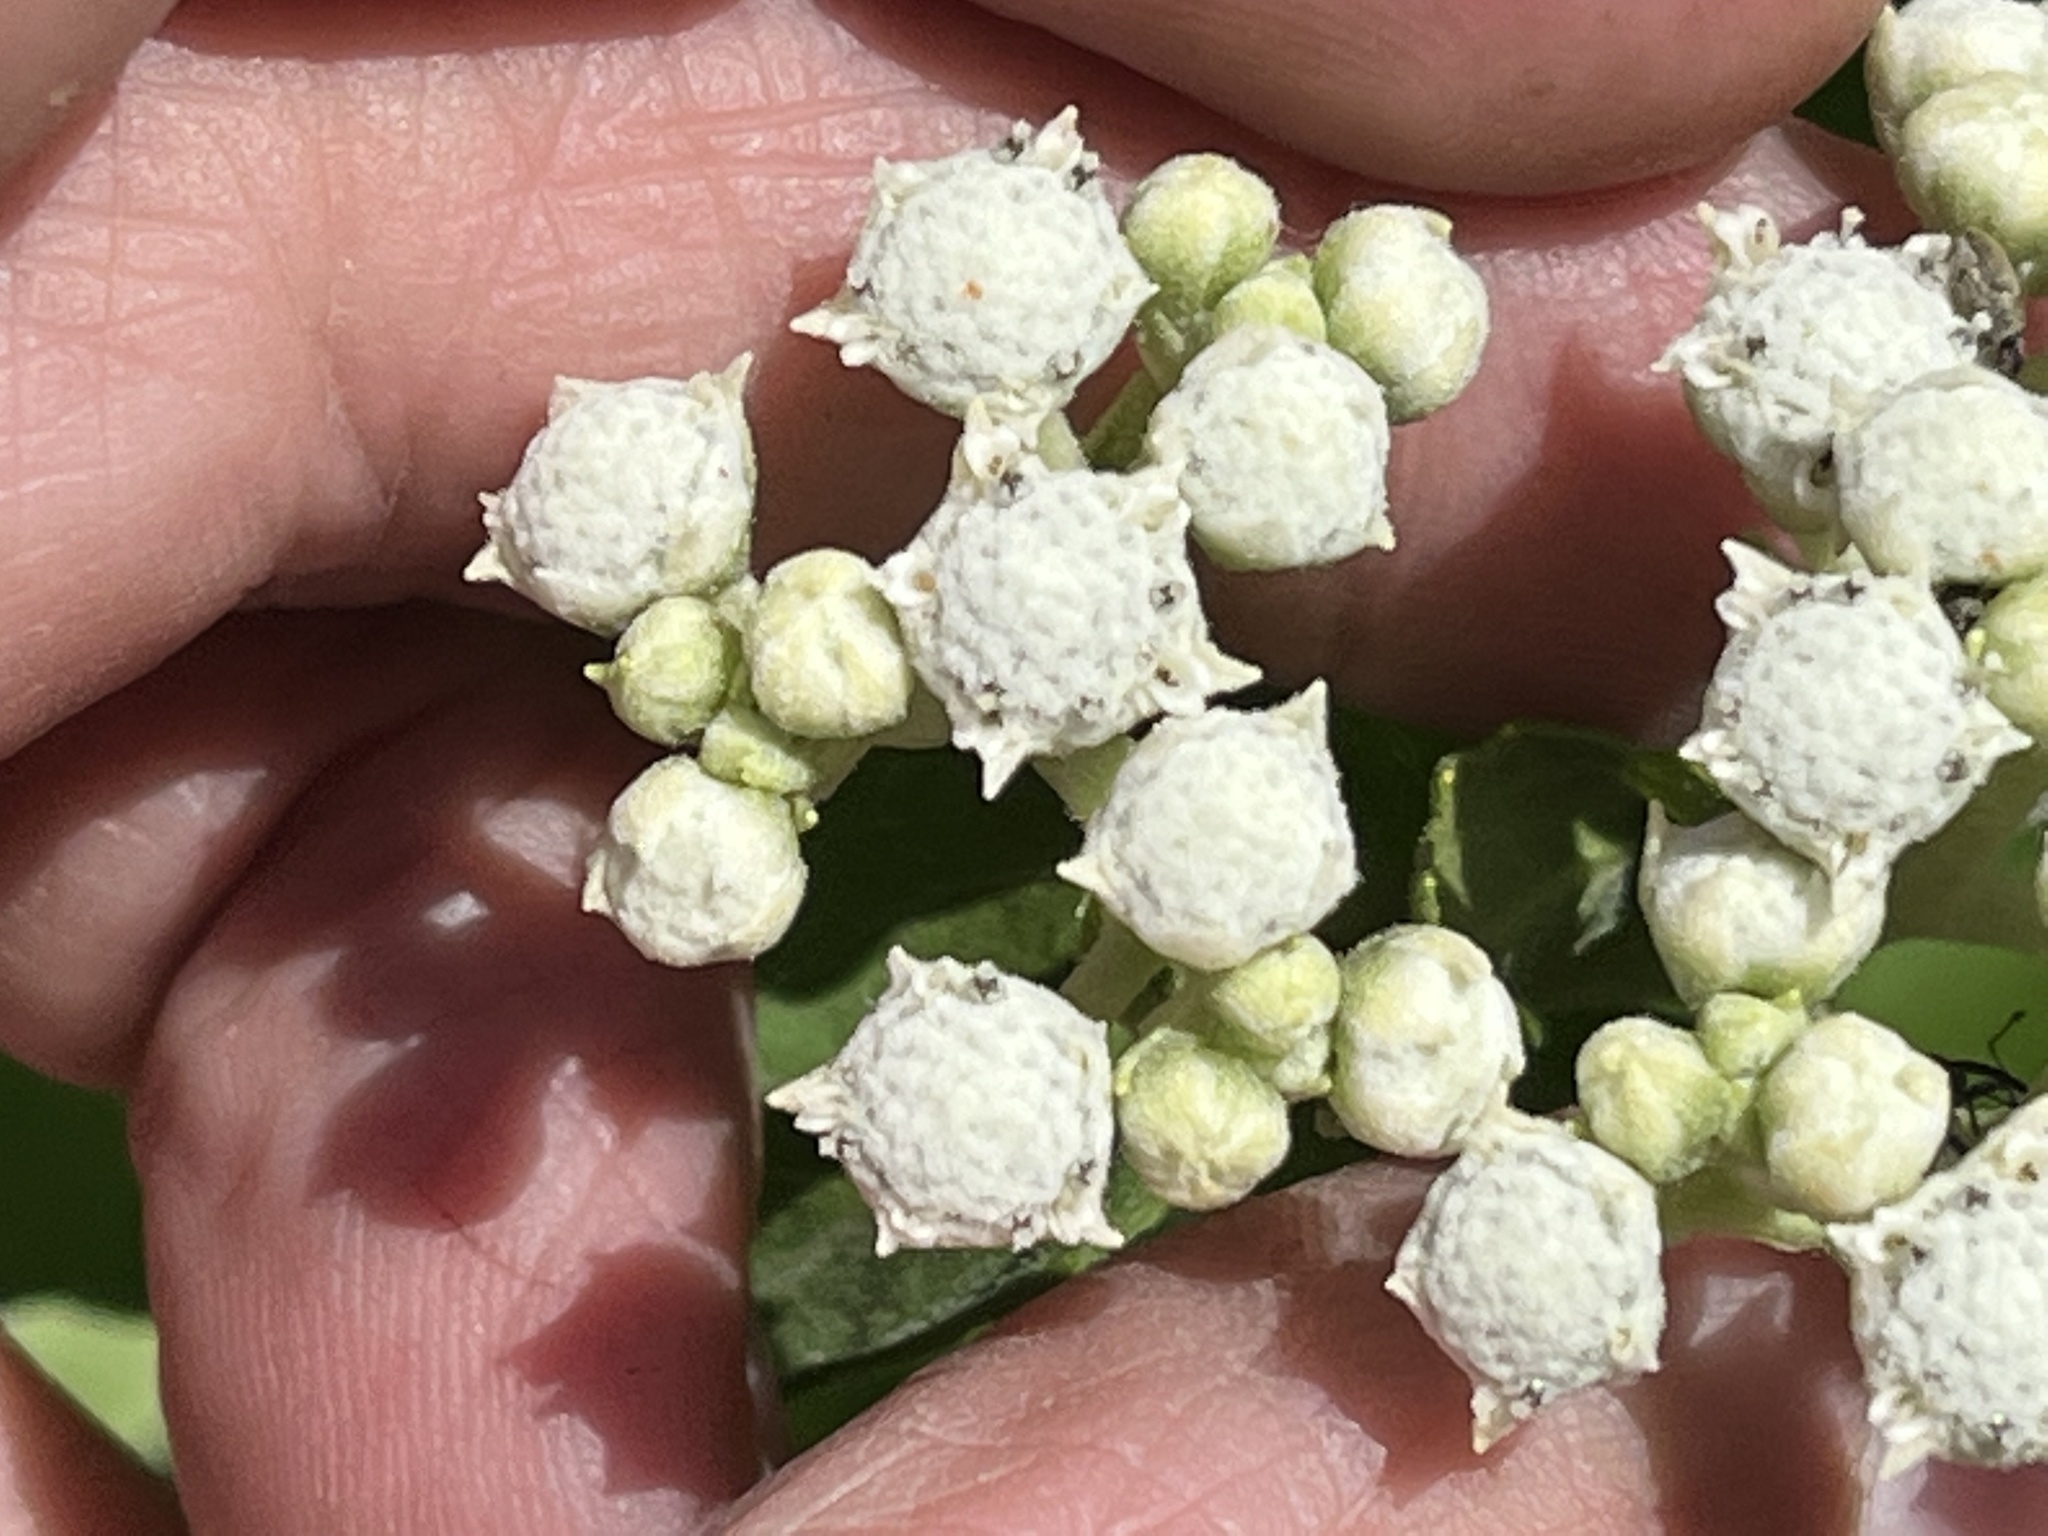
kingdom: Plantae
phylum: Tracheophyta
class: Magnoliopsida
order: Asterales
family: Asteraceae
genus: Parthenium
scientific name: Parthenium integrifolium
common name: American feverfew
